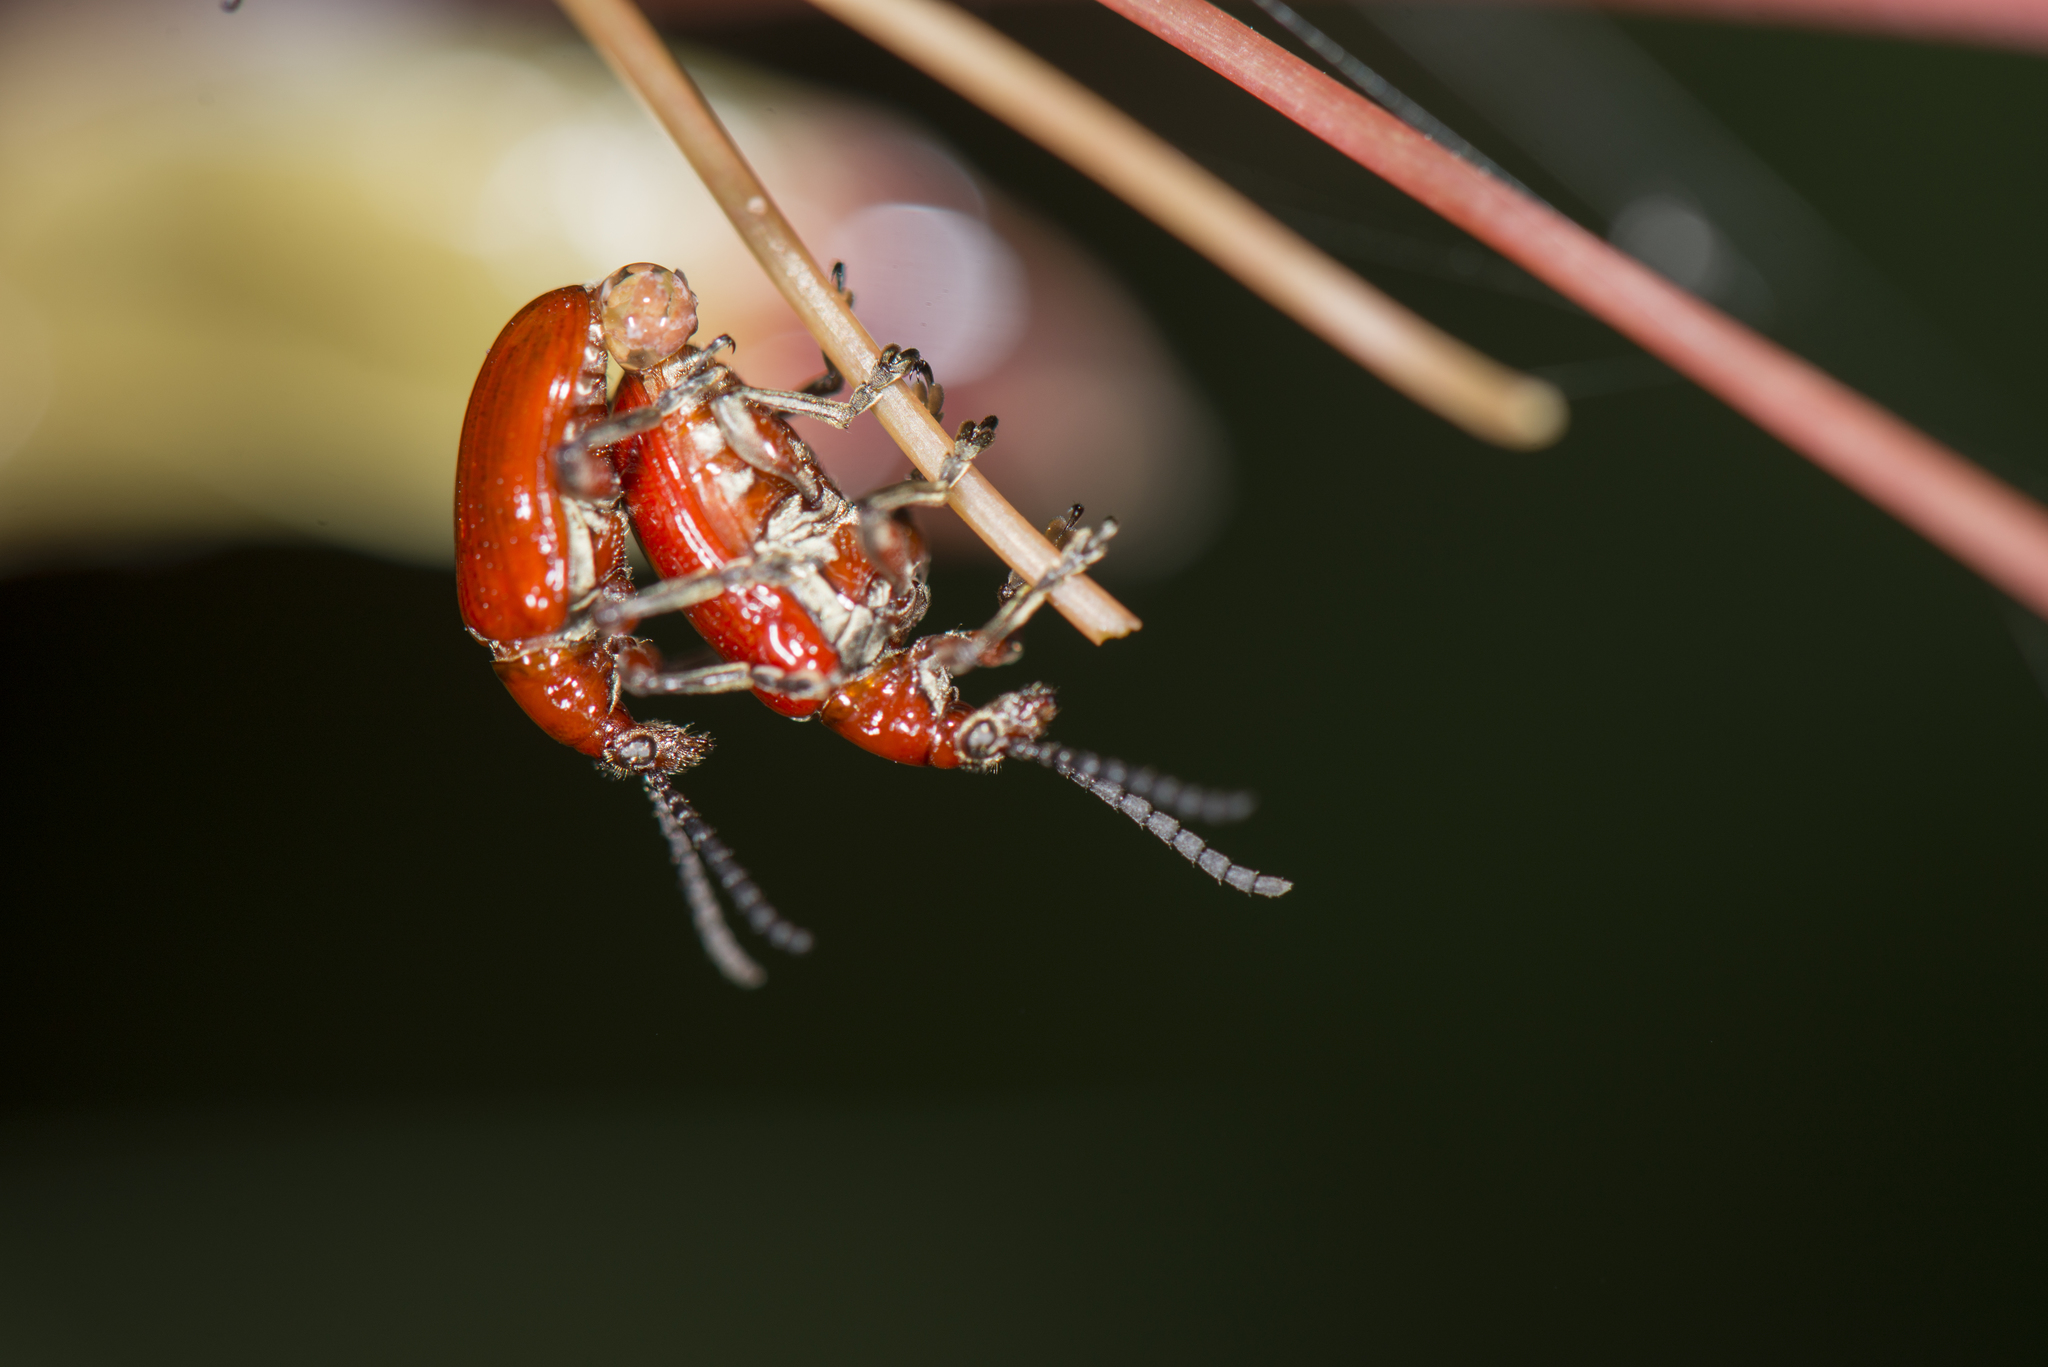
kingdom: Animalia
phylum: Arthropoda
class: Insecta
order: Coleoptera
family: Chrysomelidae
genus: Lilioceris
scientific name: Lilioceris neptis
